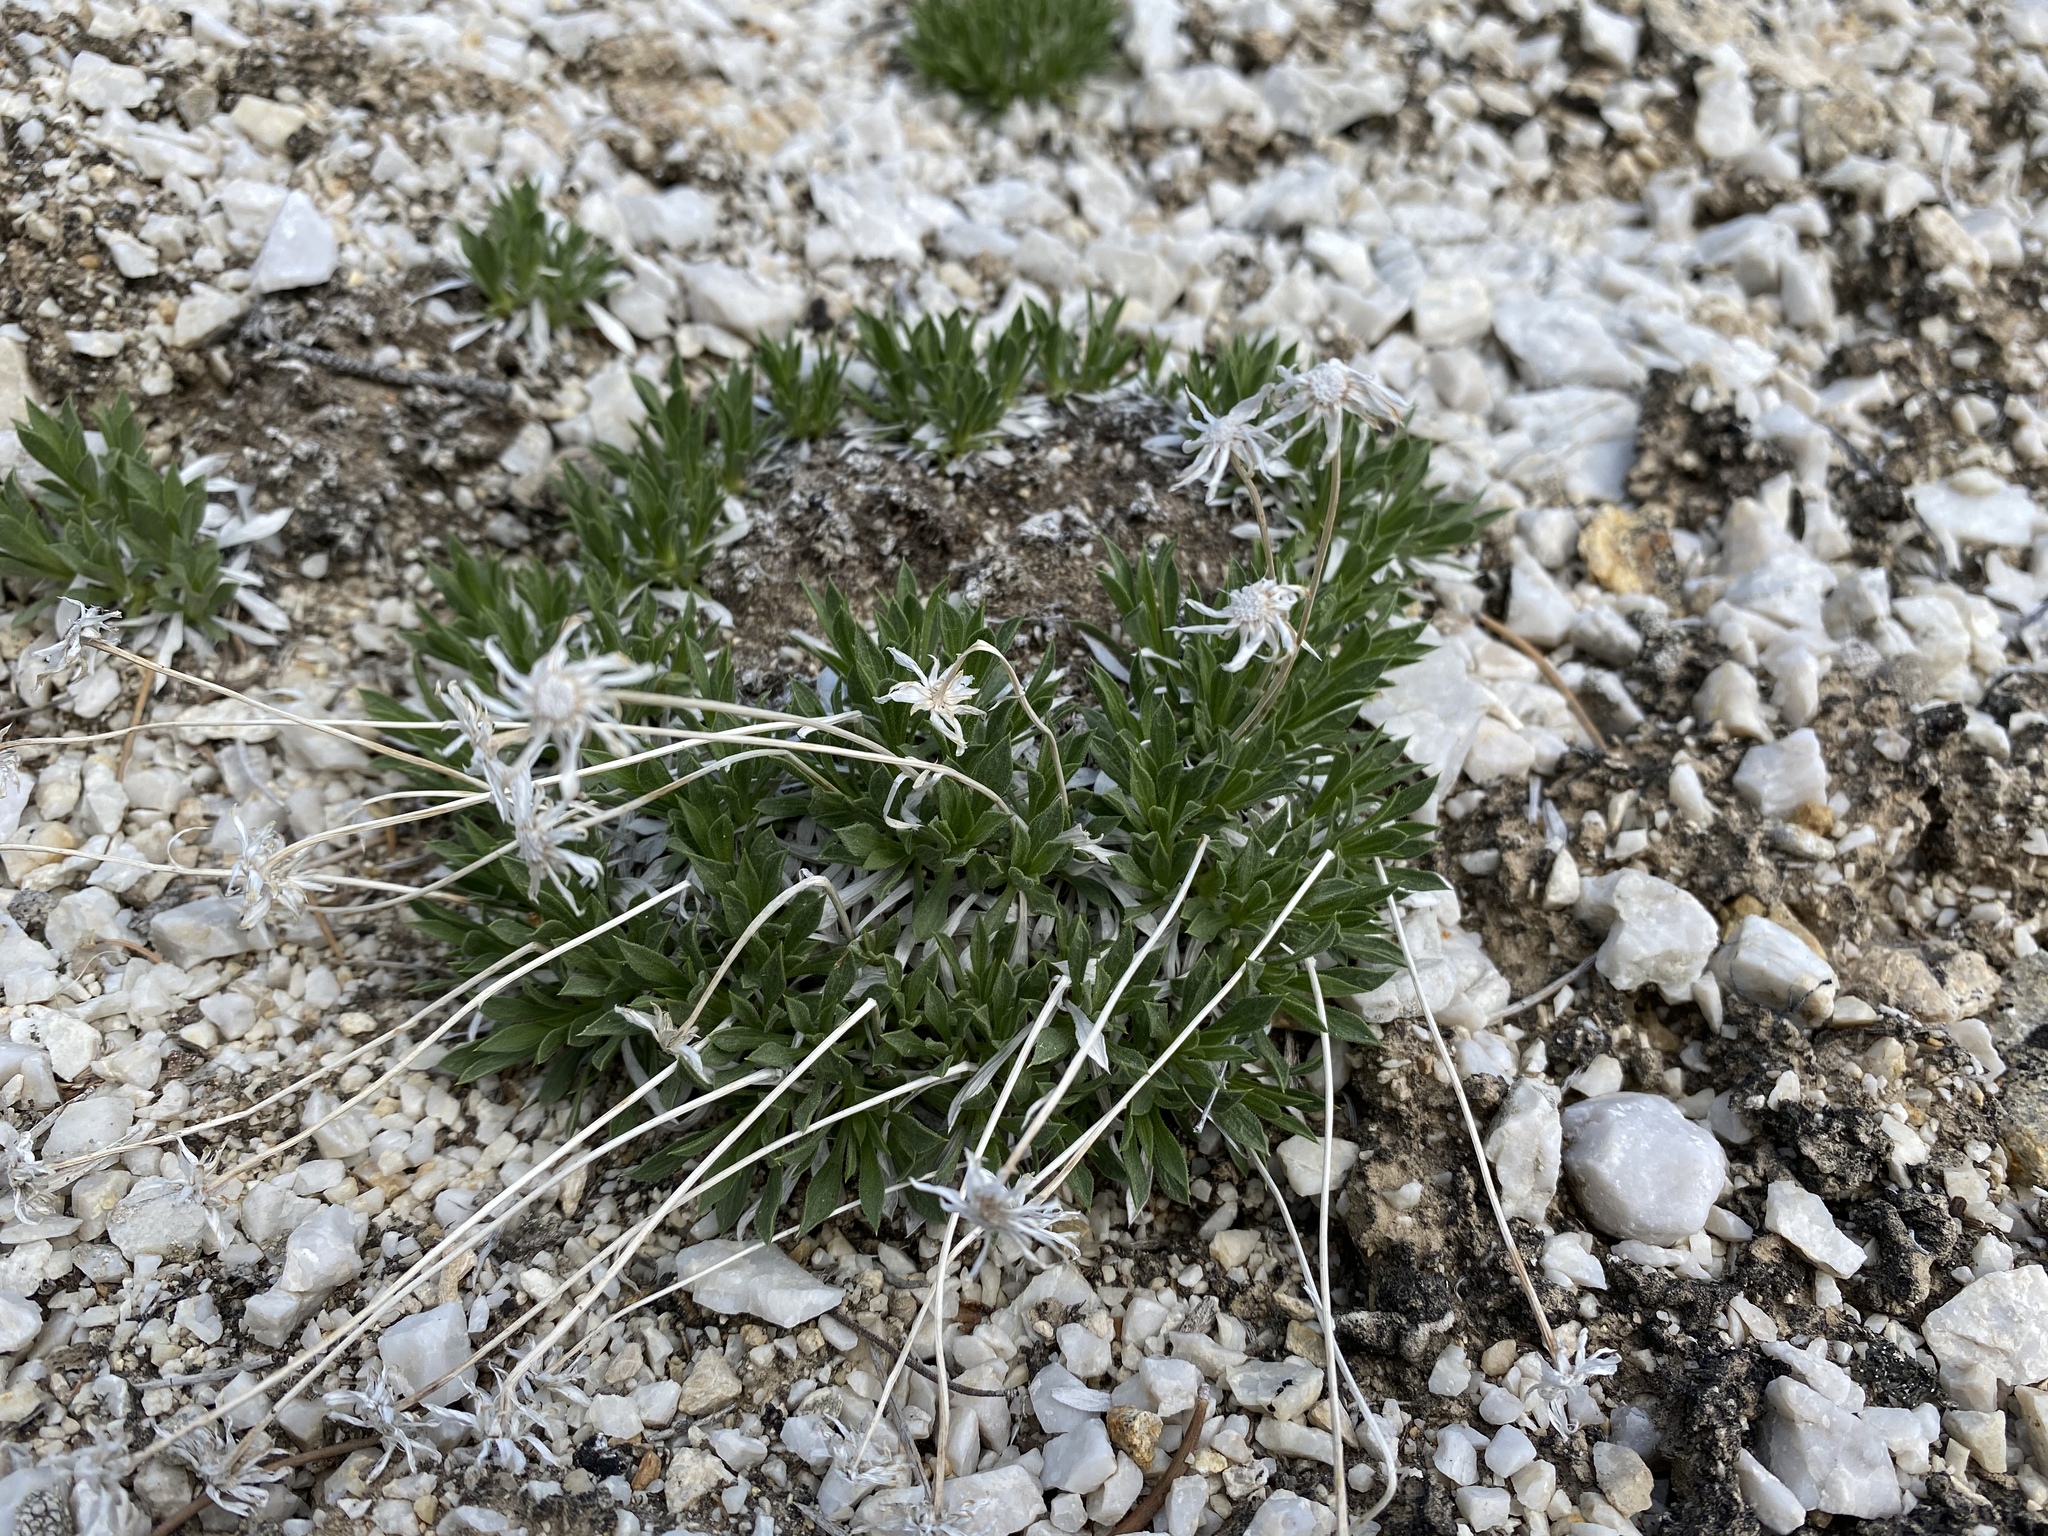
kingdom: Plantae
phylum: Tracheophyta
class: Magnoliopsida
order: Asterales
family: Asteraceae
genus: Stenotus
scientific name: Stenotus acaulis
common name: Stemless goldenweed
